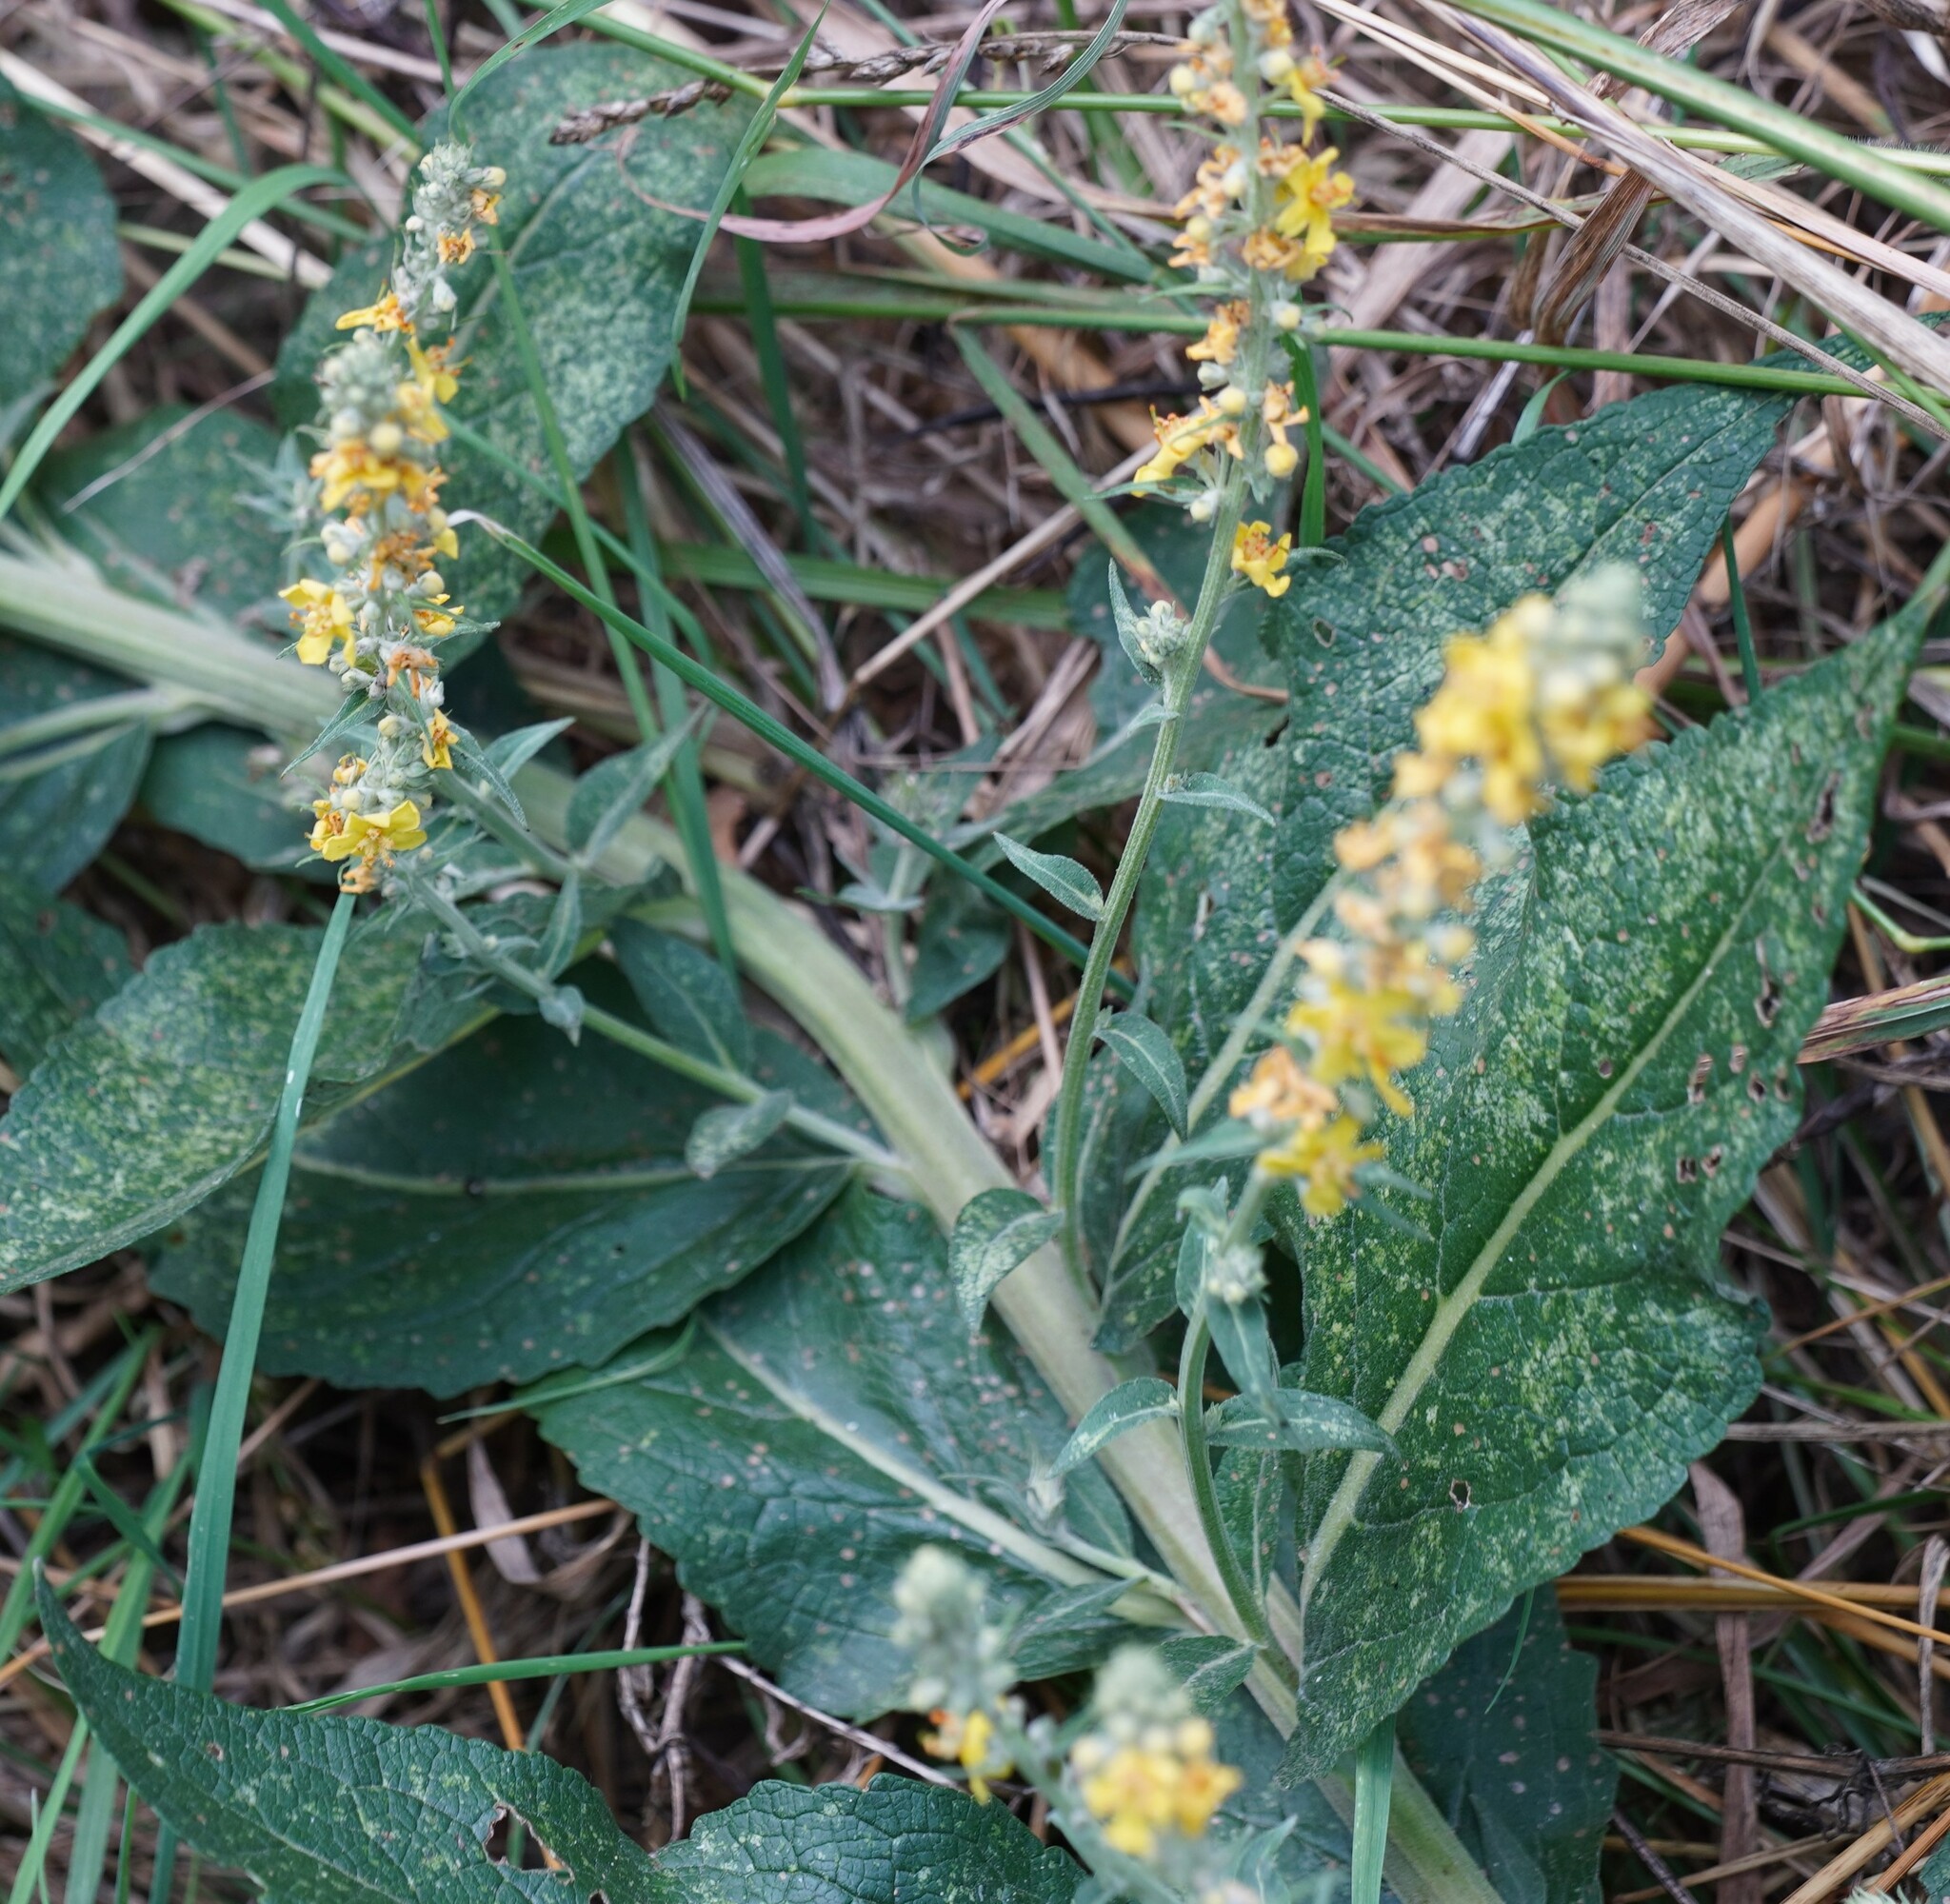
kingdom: Plantae
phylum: Tracheophyta
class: Magnoliopsida
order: Lamiales
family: Scrophulariaceae
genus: Verbascum
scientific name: Verbascum lychnitis
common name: White mullein
